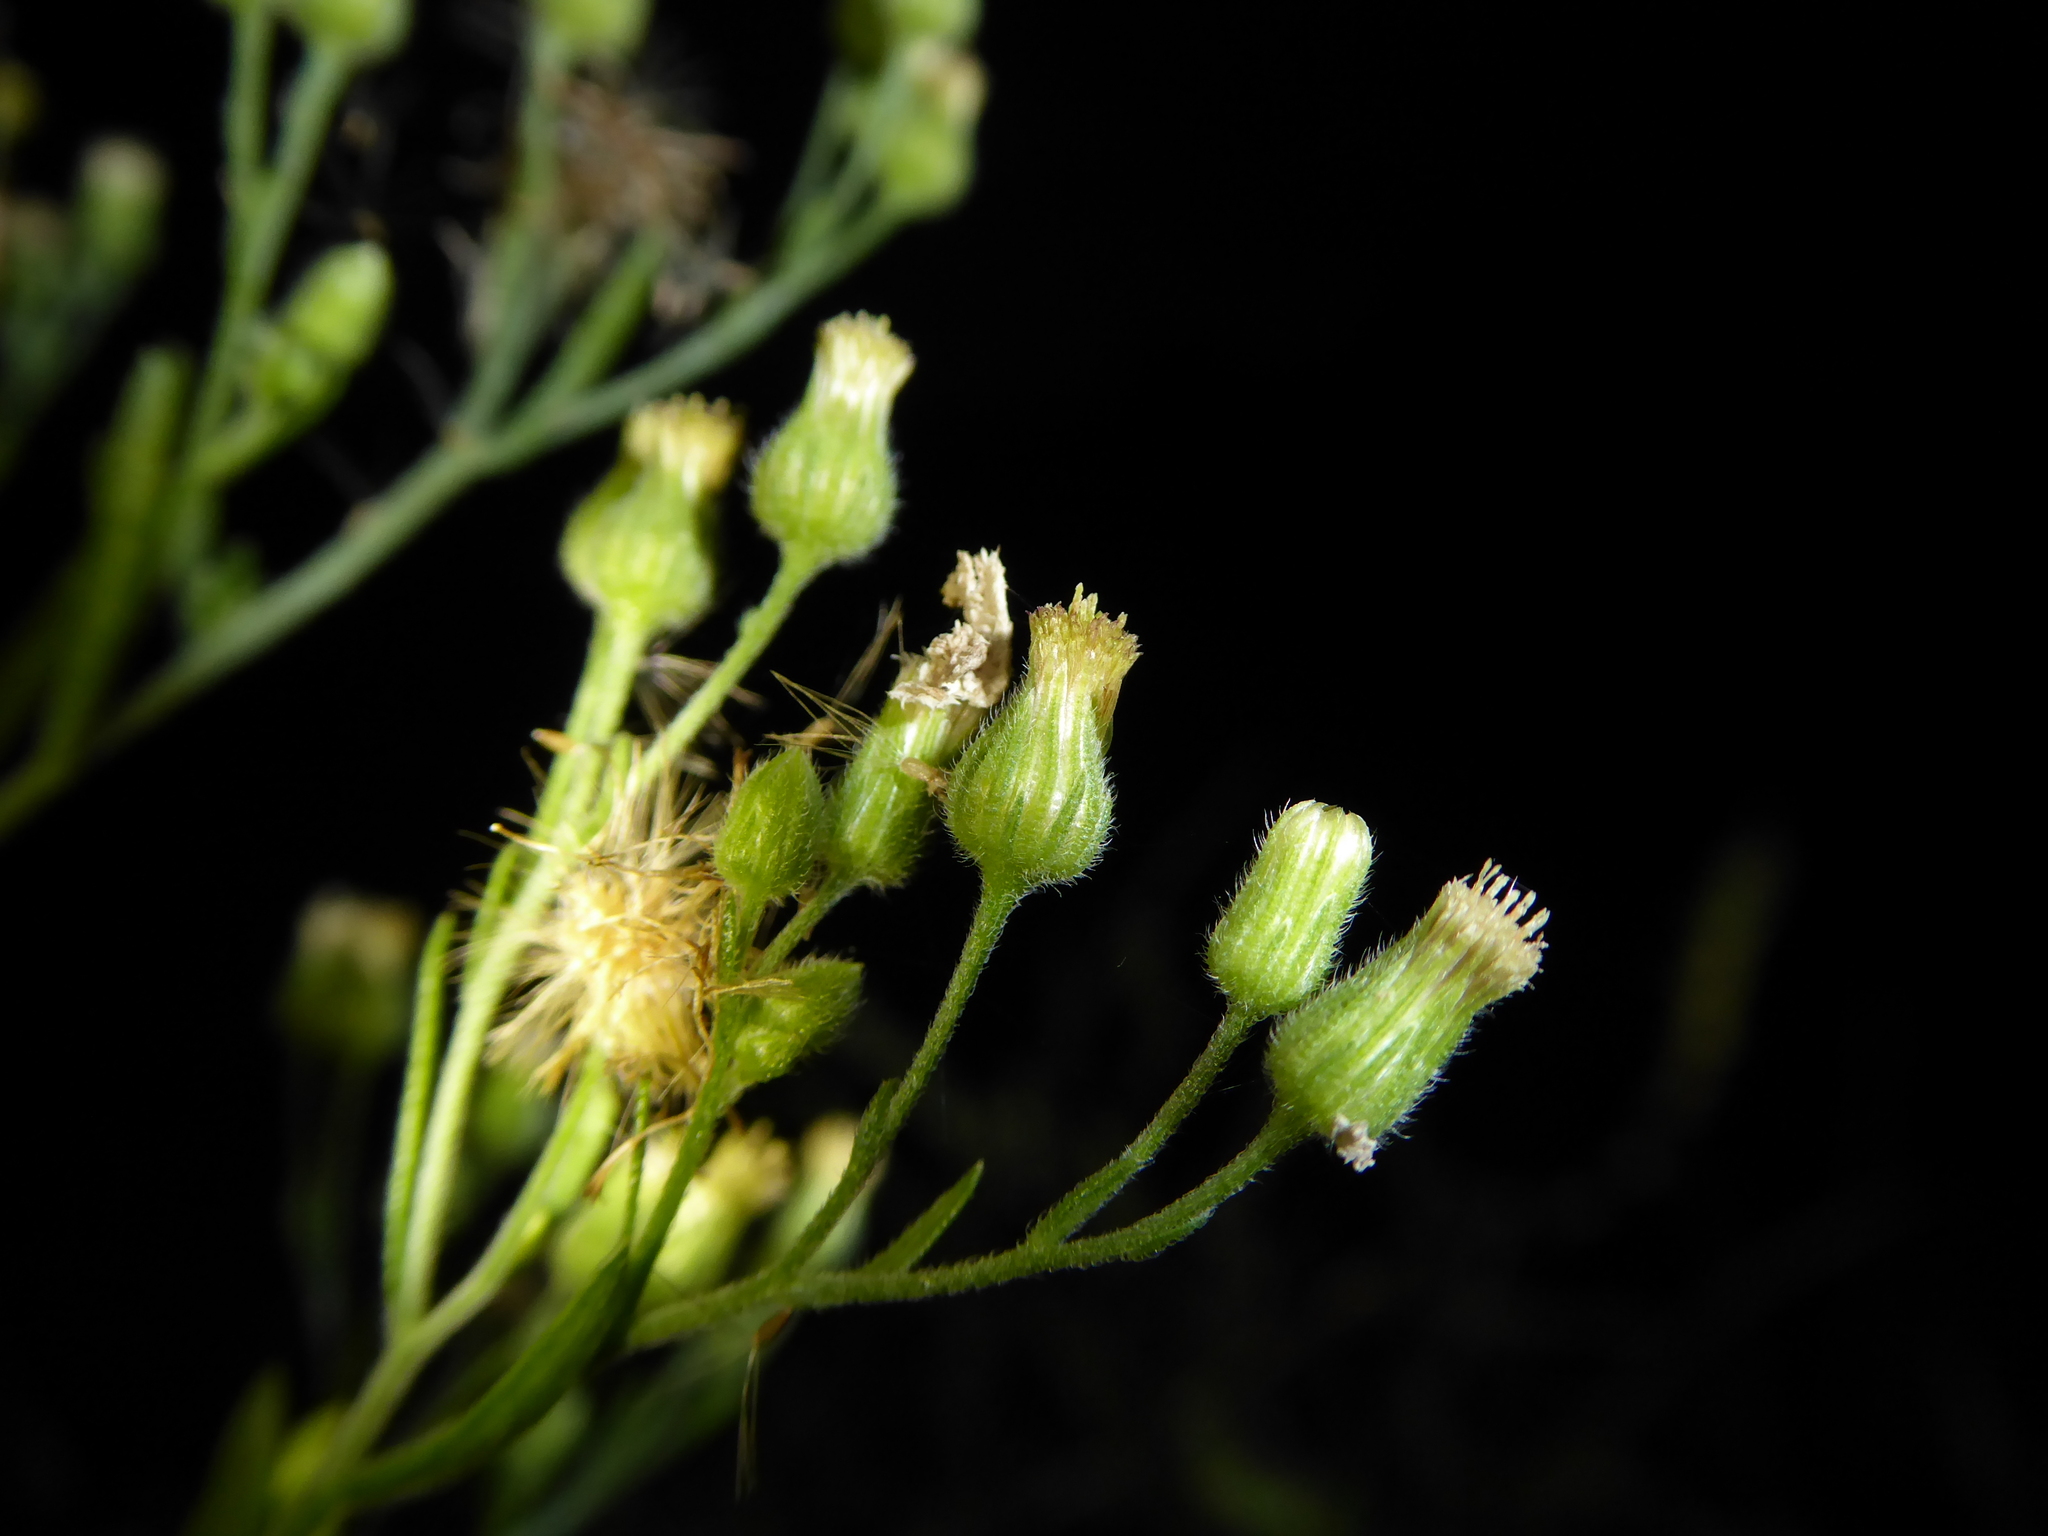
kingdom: Plantae
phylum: Tracheophyta
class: Magnoliopsida
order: Asterales
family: Asteraceae
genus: Erigeron
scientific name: Erigeron sumatrensis
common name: Daisy
